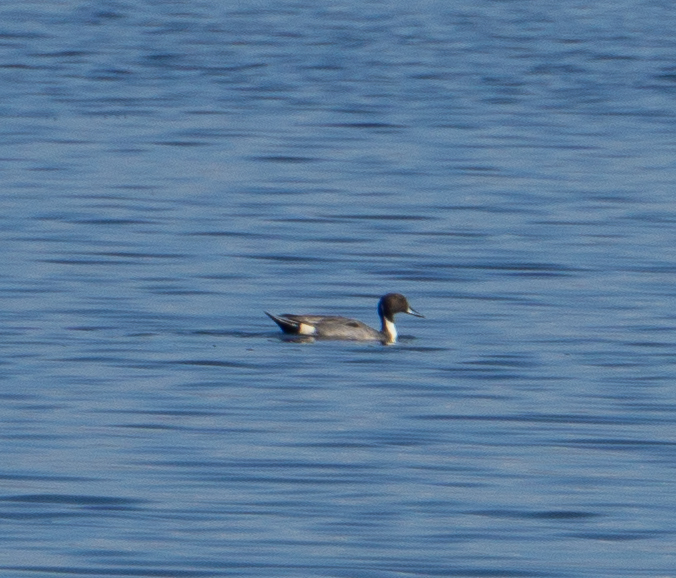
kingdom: Animalia
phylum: Chordata
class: Aves
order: Anseriformes
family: Anatidae
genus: Anas
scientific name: Anas acuta
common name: Northern pintail
